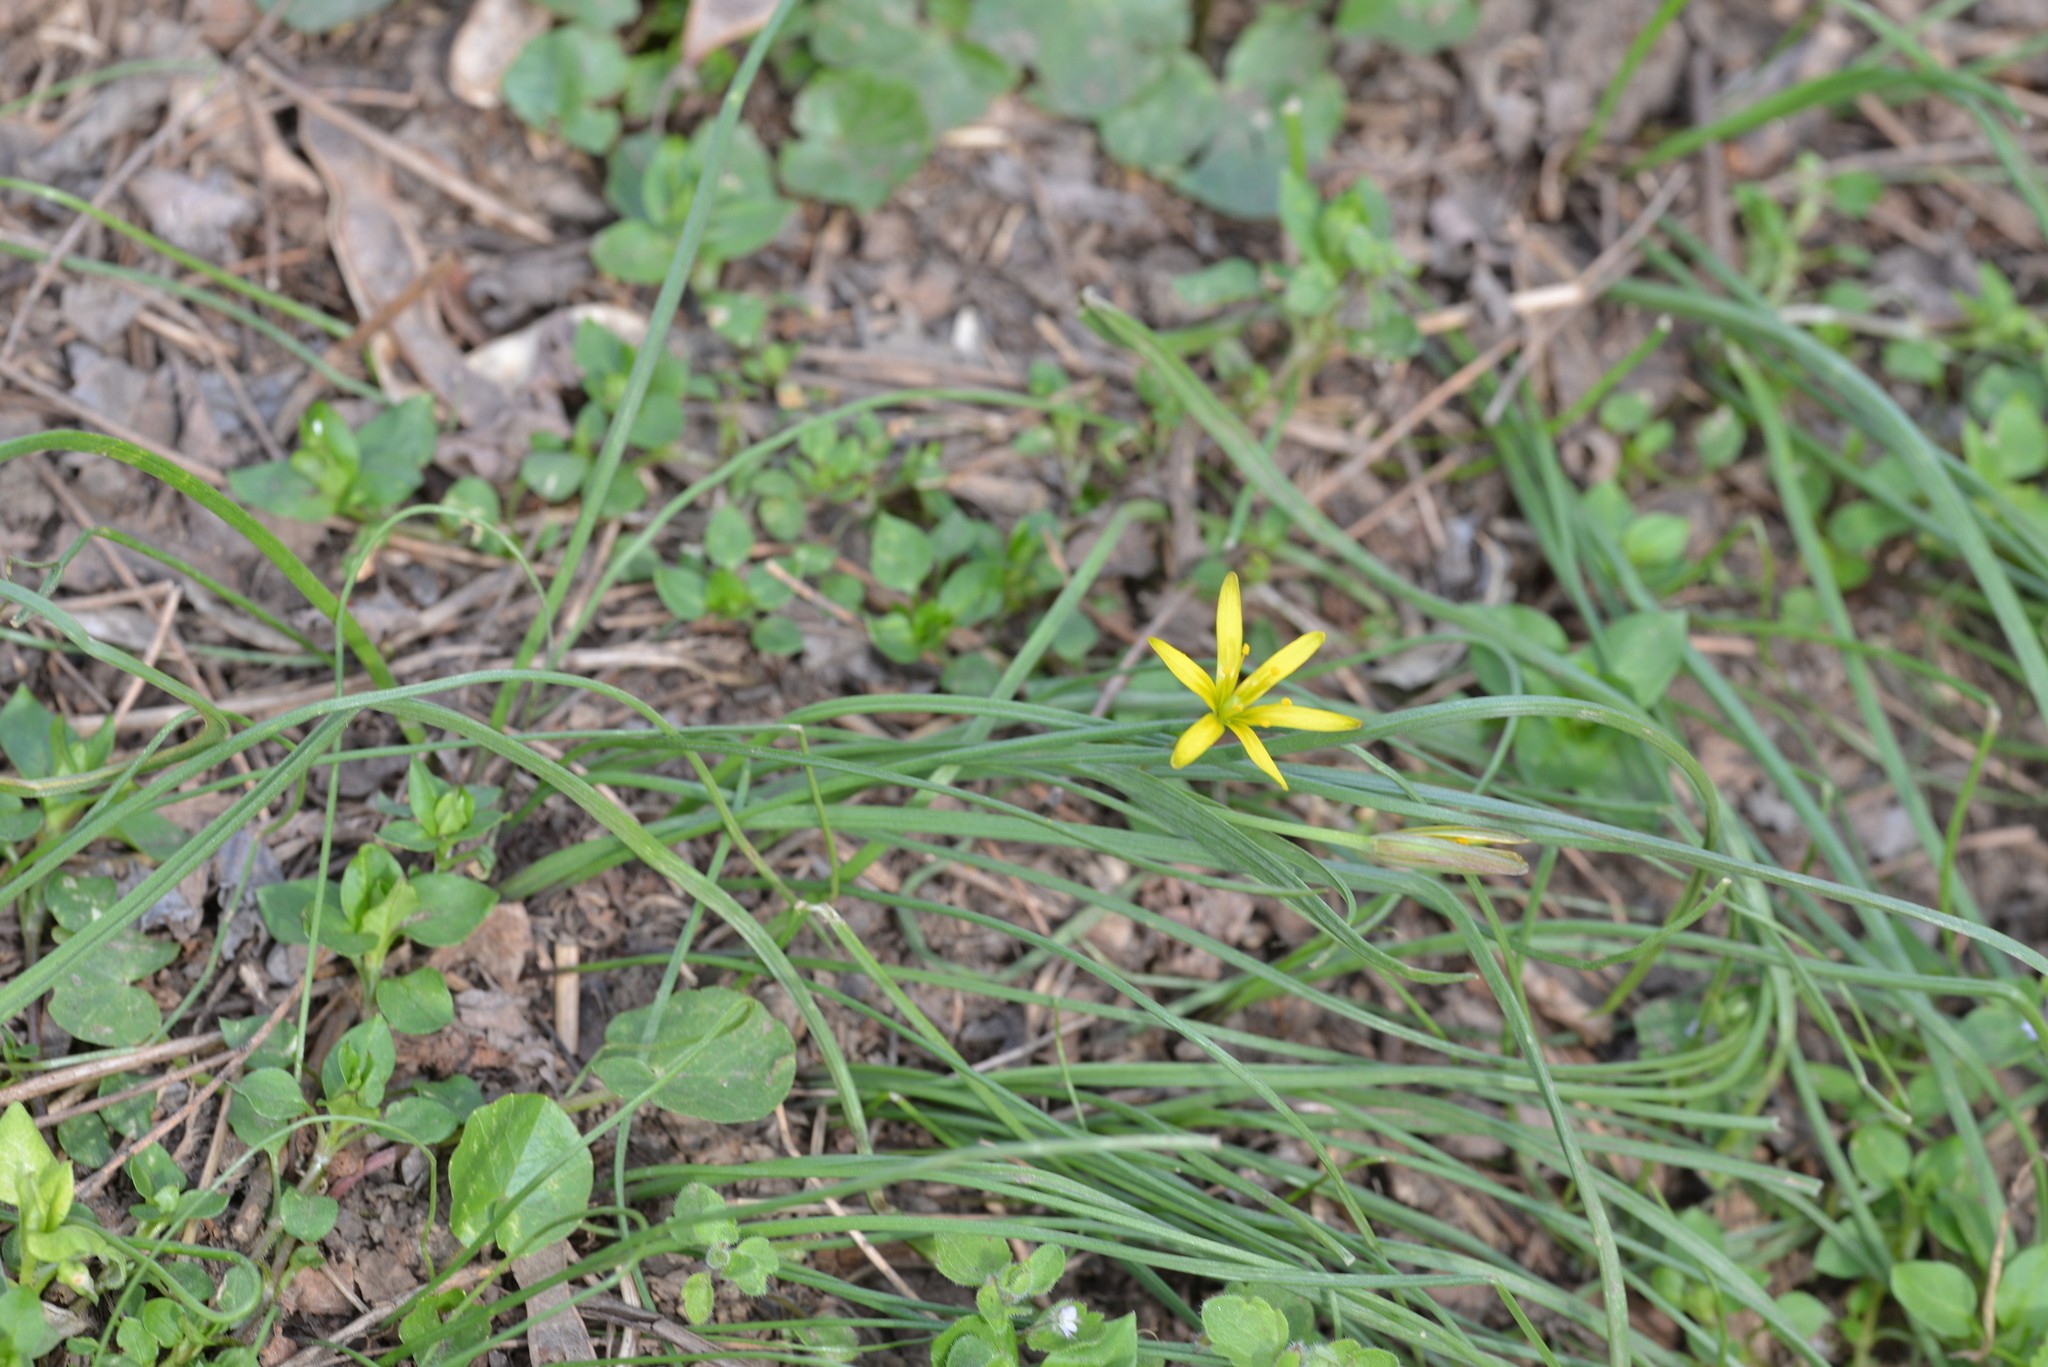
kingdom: Plantae
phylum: Tracheophyta
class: Liliopsida
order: Liliales
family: Liliaceae
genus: Gagea
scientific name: Gagea pratensis
